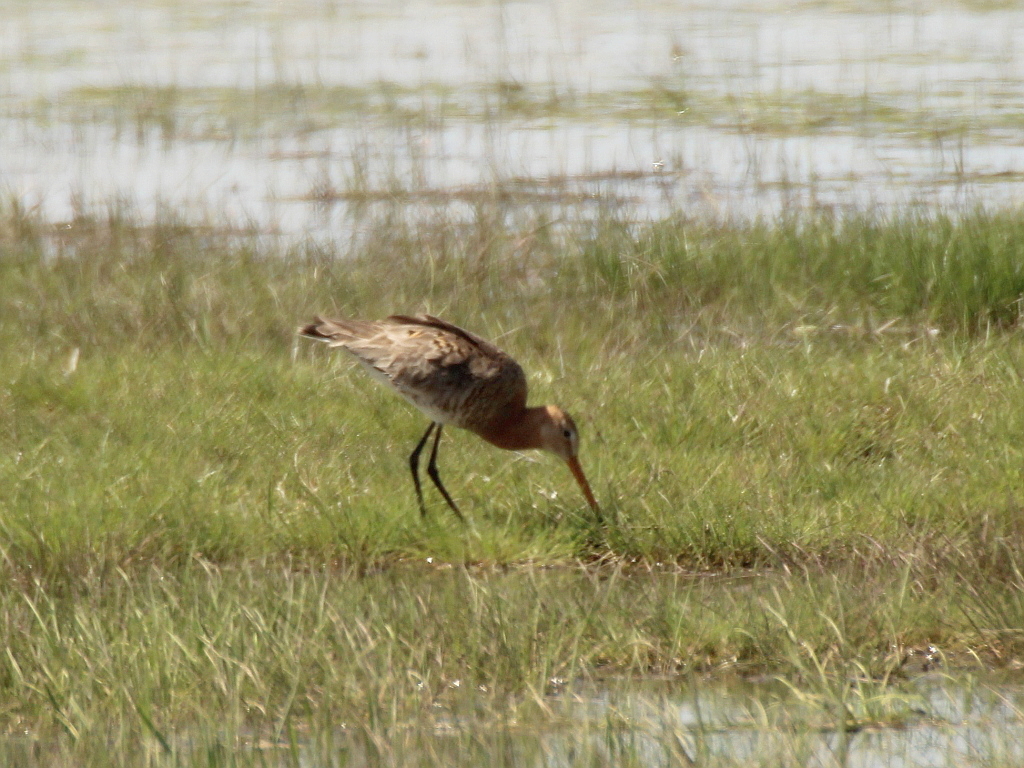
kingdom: Animalia
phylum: Chordata
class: Aves
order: Charadriiformes
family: Scolopacidae
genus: Limosa
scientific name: Limosa limosa
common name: Black-tailed godwit
